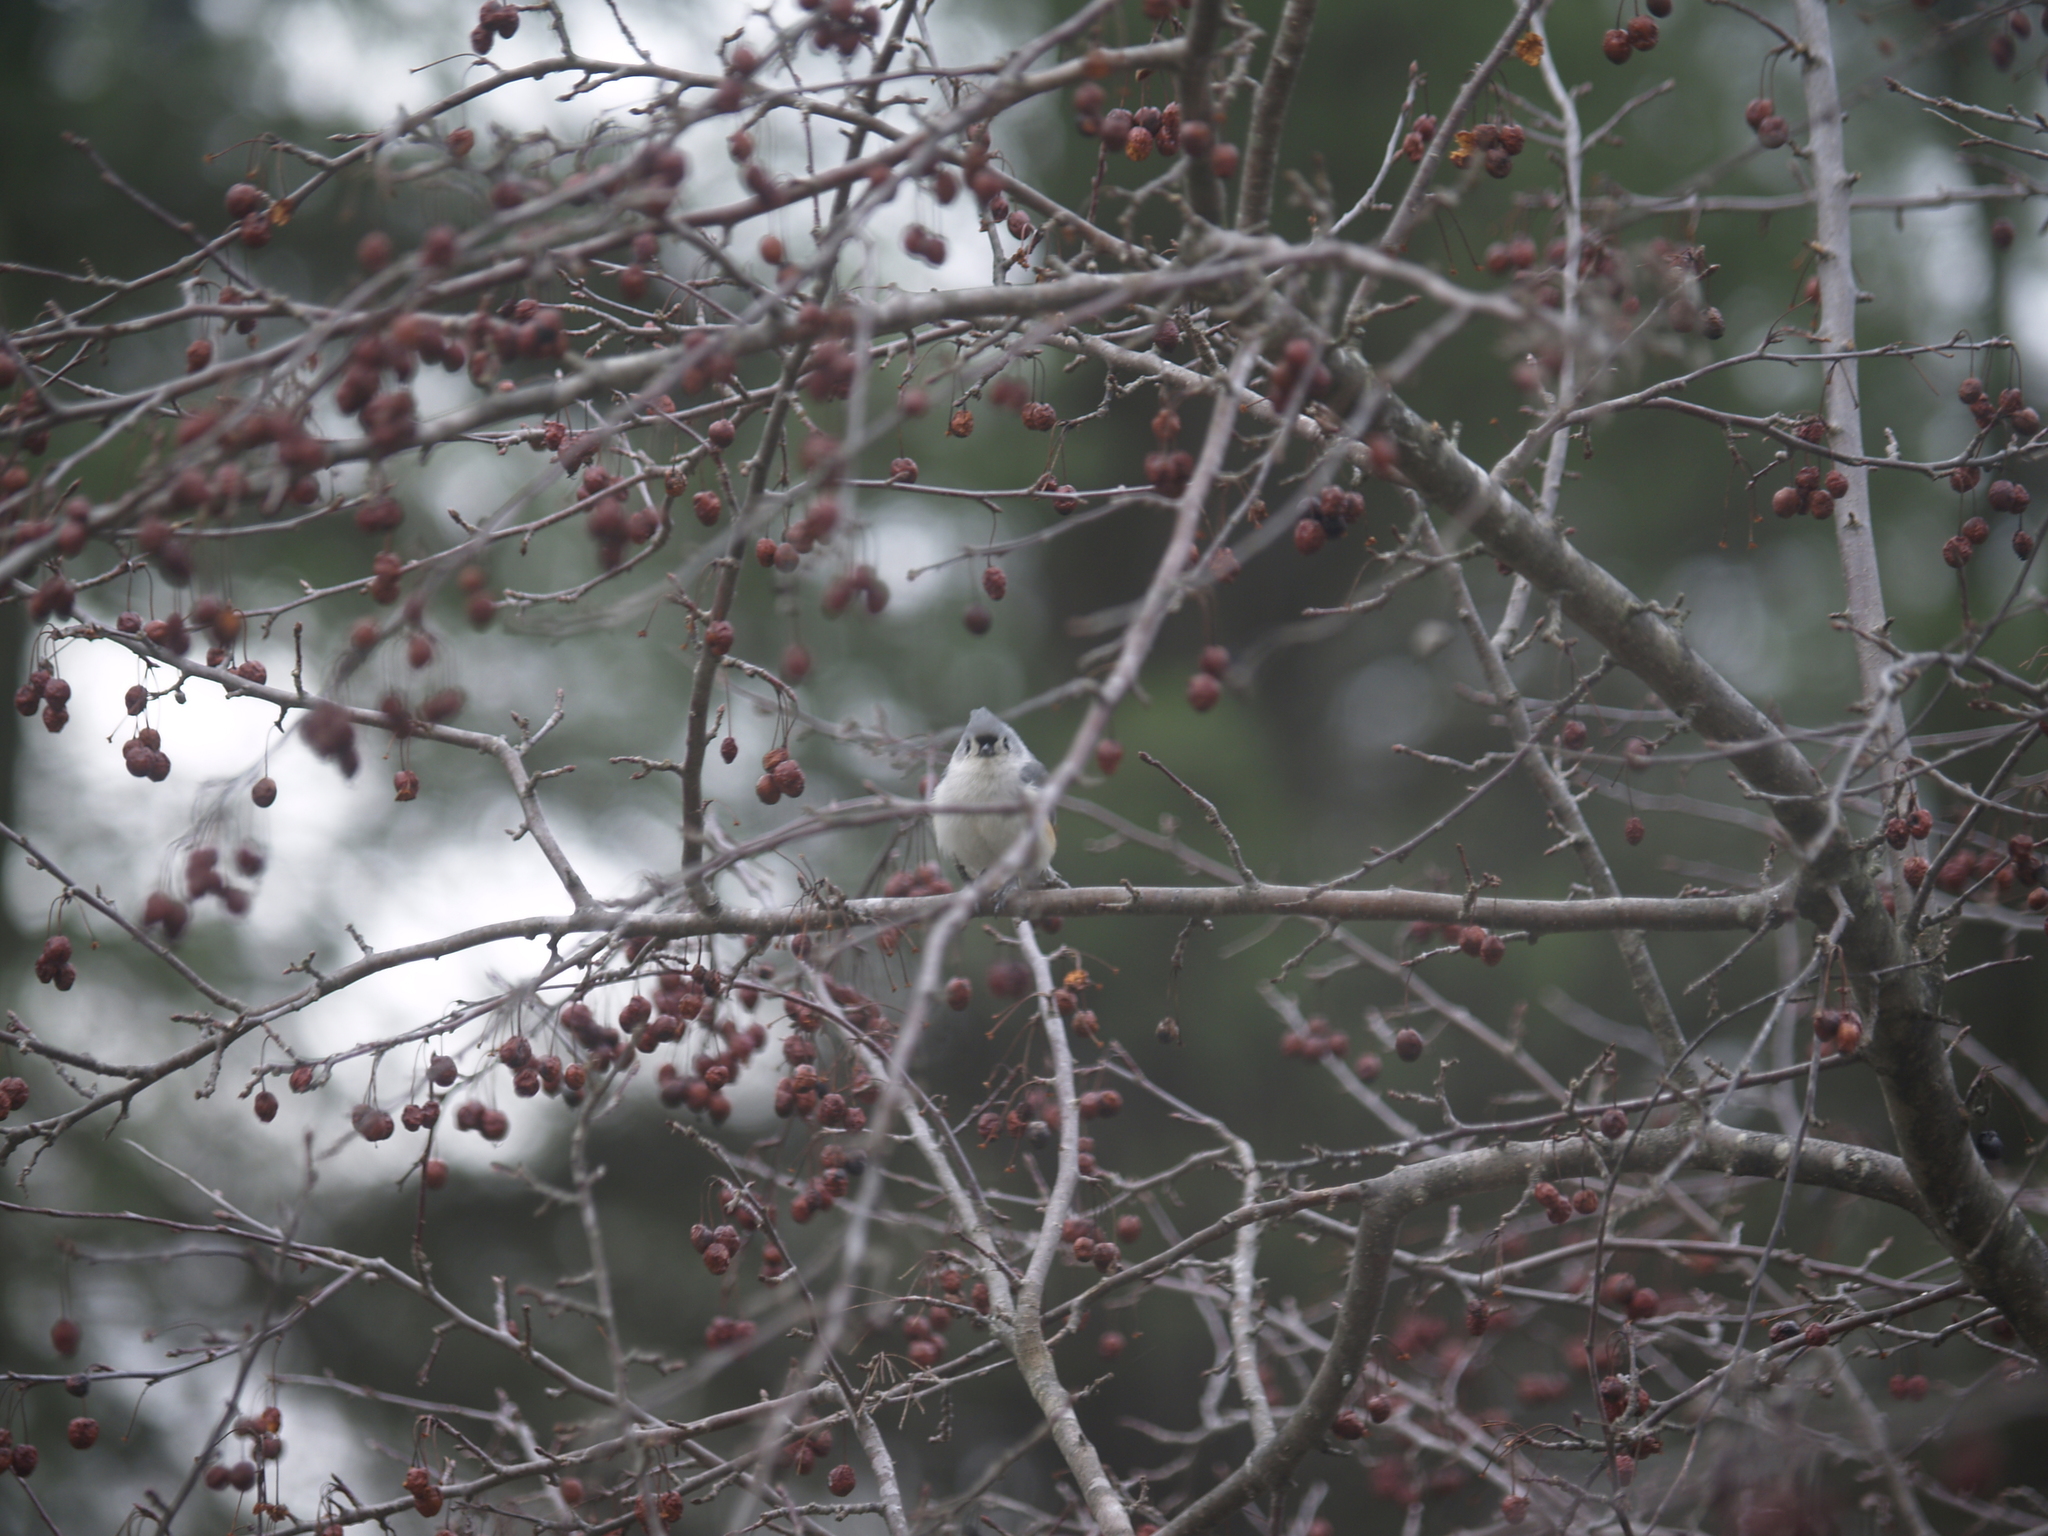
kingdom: Animalia
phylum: Chordata
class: Aves
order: Passeriformes
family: Paridae
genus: Baeolophus
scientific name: Baeolophus bicolor
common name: Tufted titmouse
